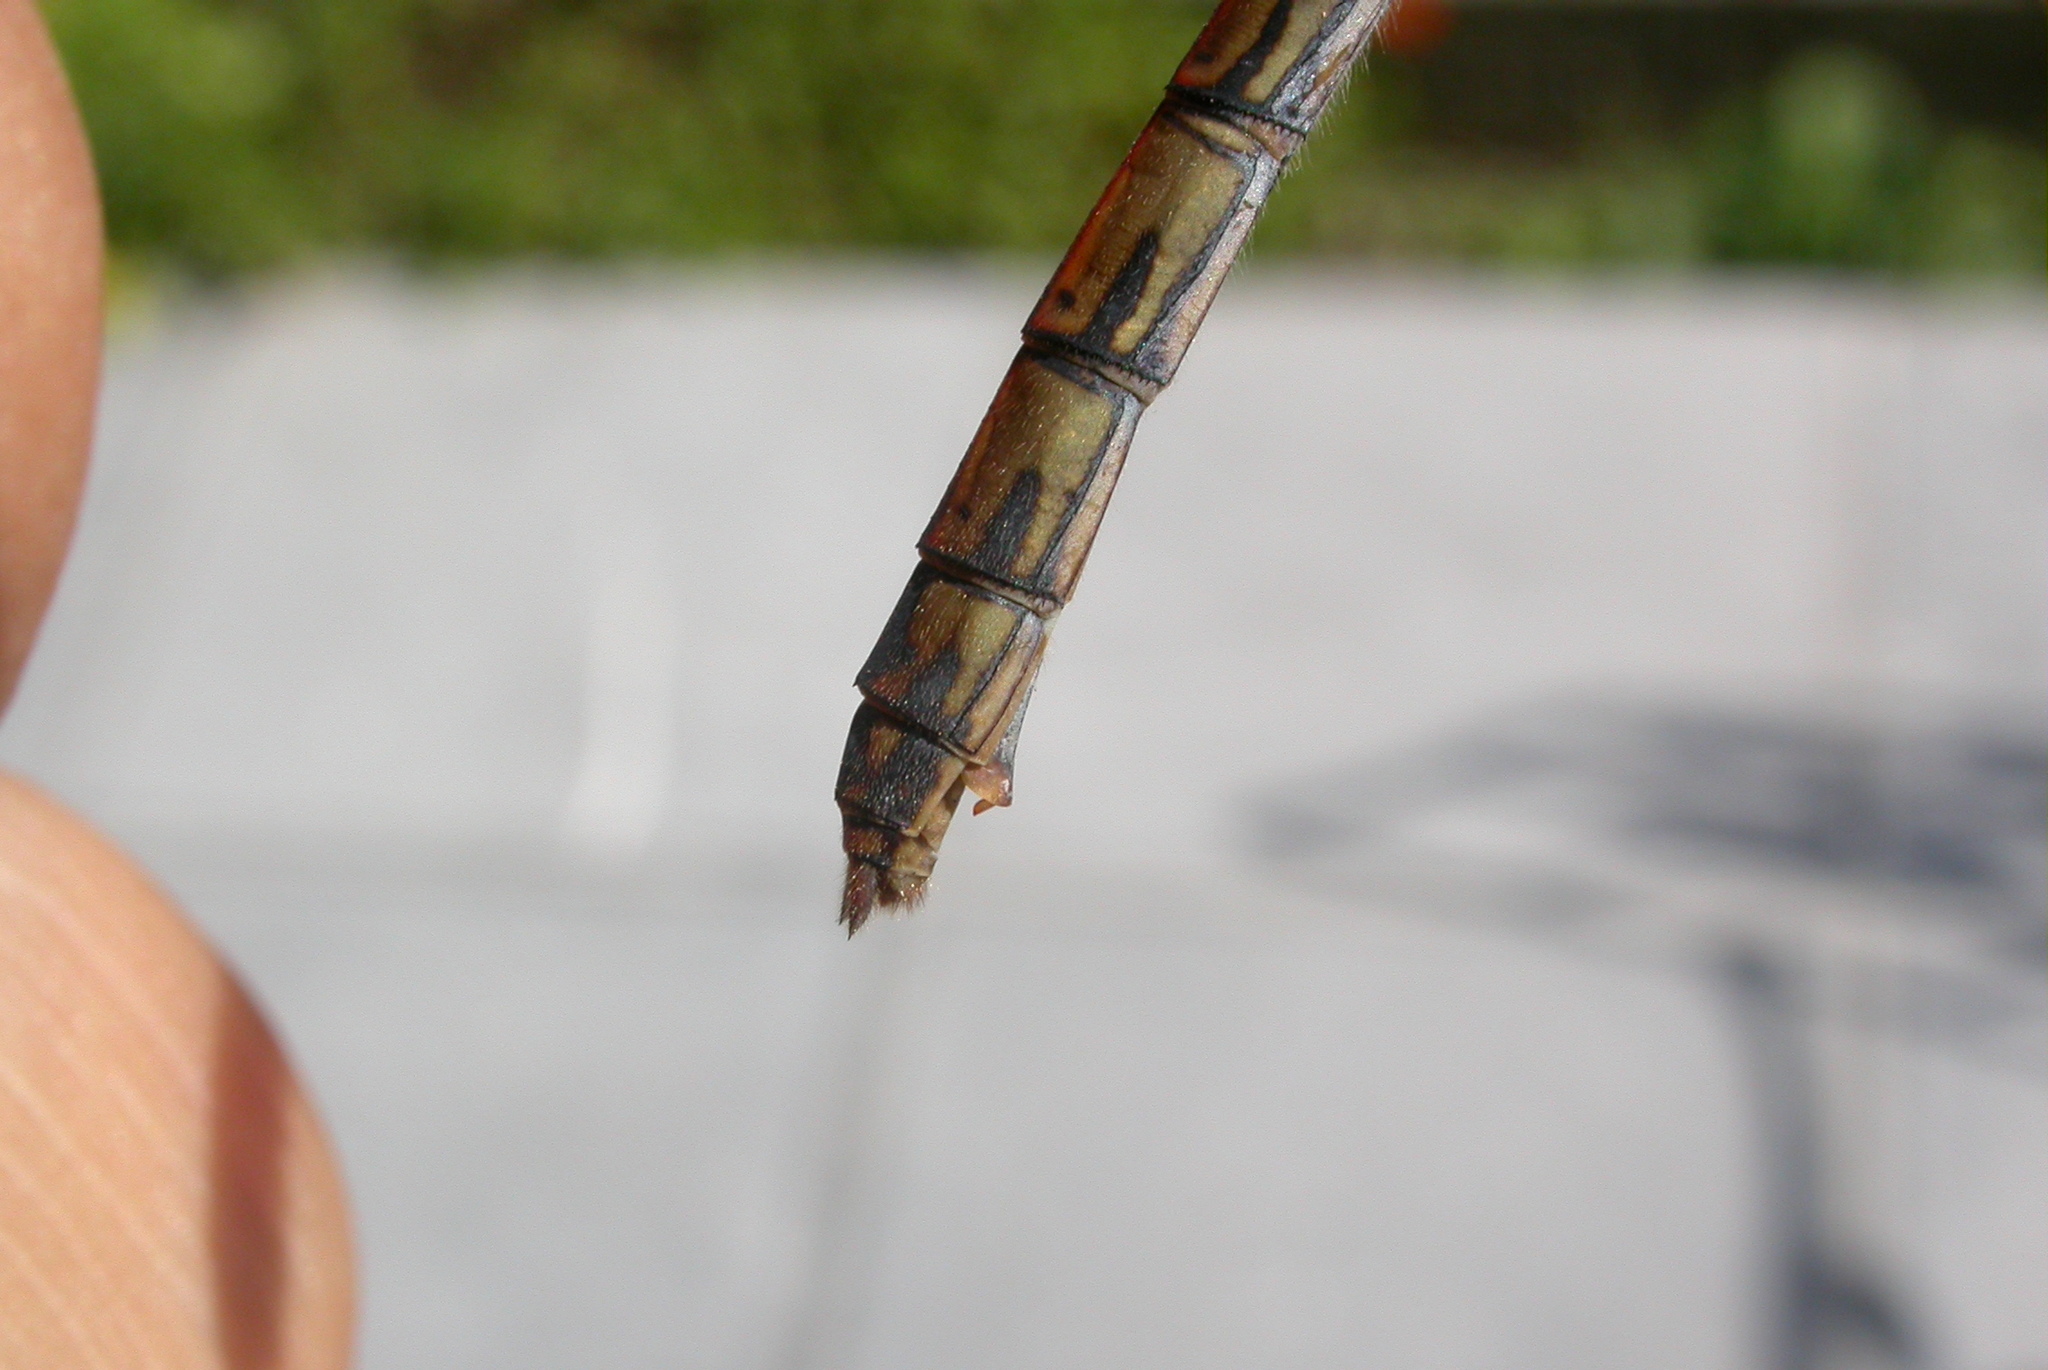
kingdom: Animalia
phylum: Arthropoda
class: Insecta
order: Odonata
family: Libellulidae
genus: Sympetrum
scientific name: Sympetrum striolatum
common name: Common darter
